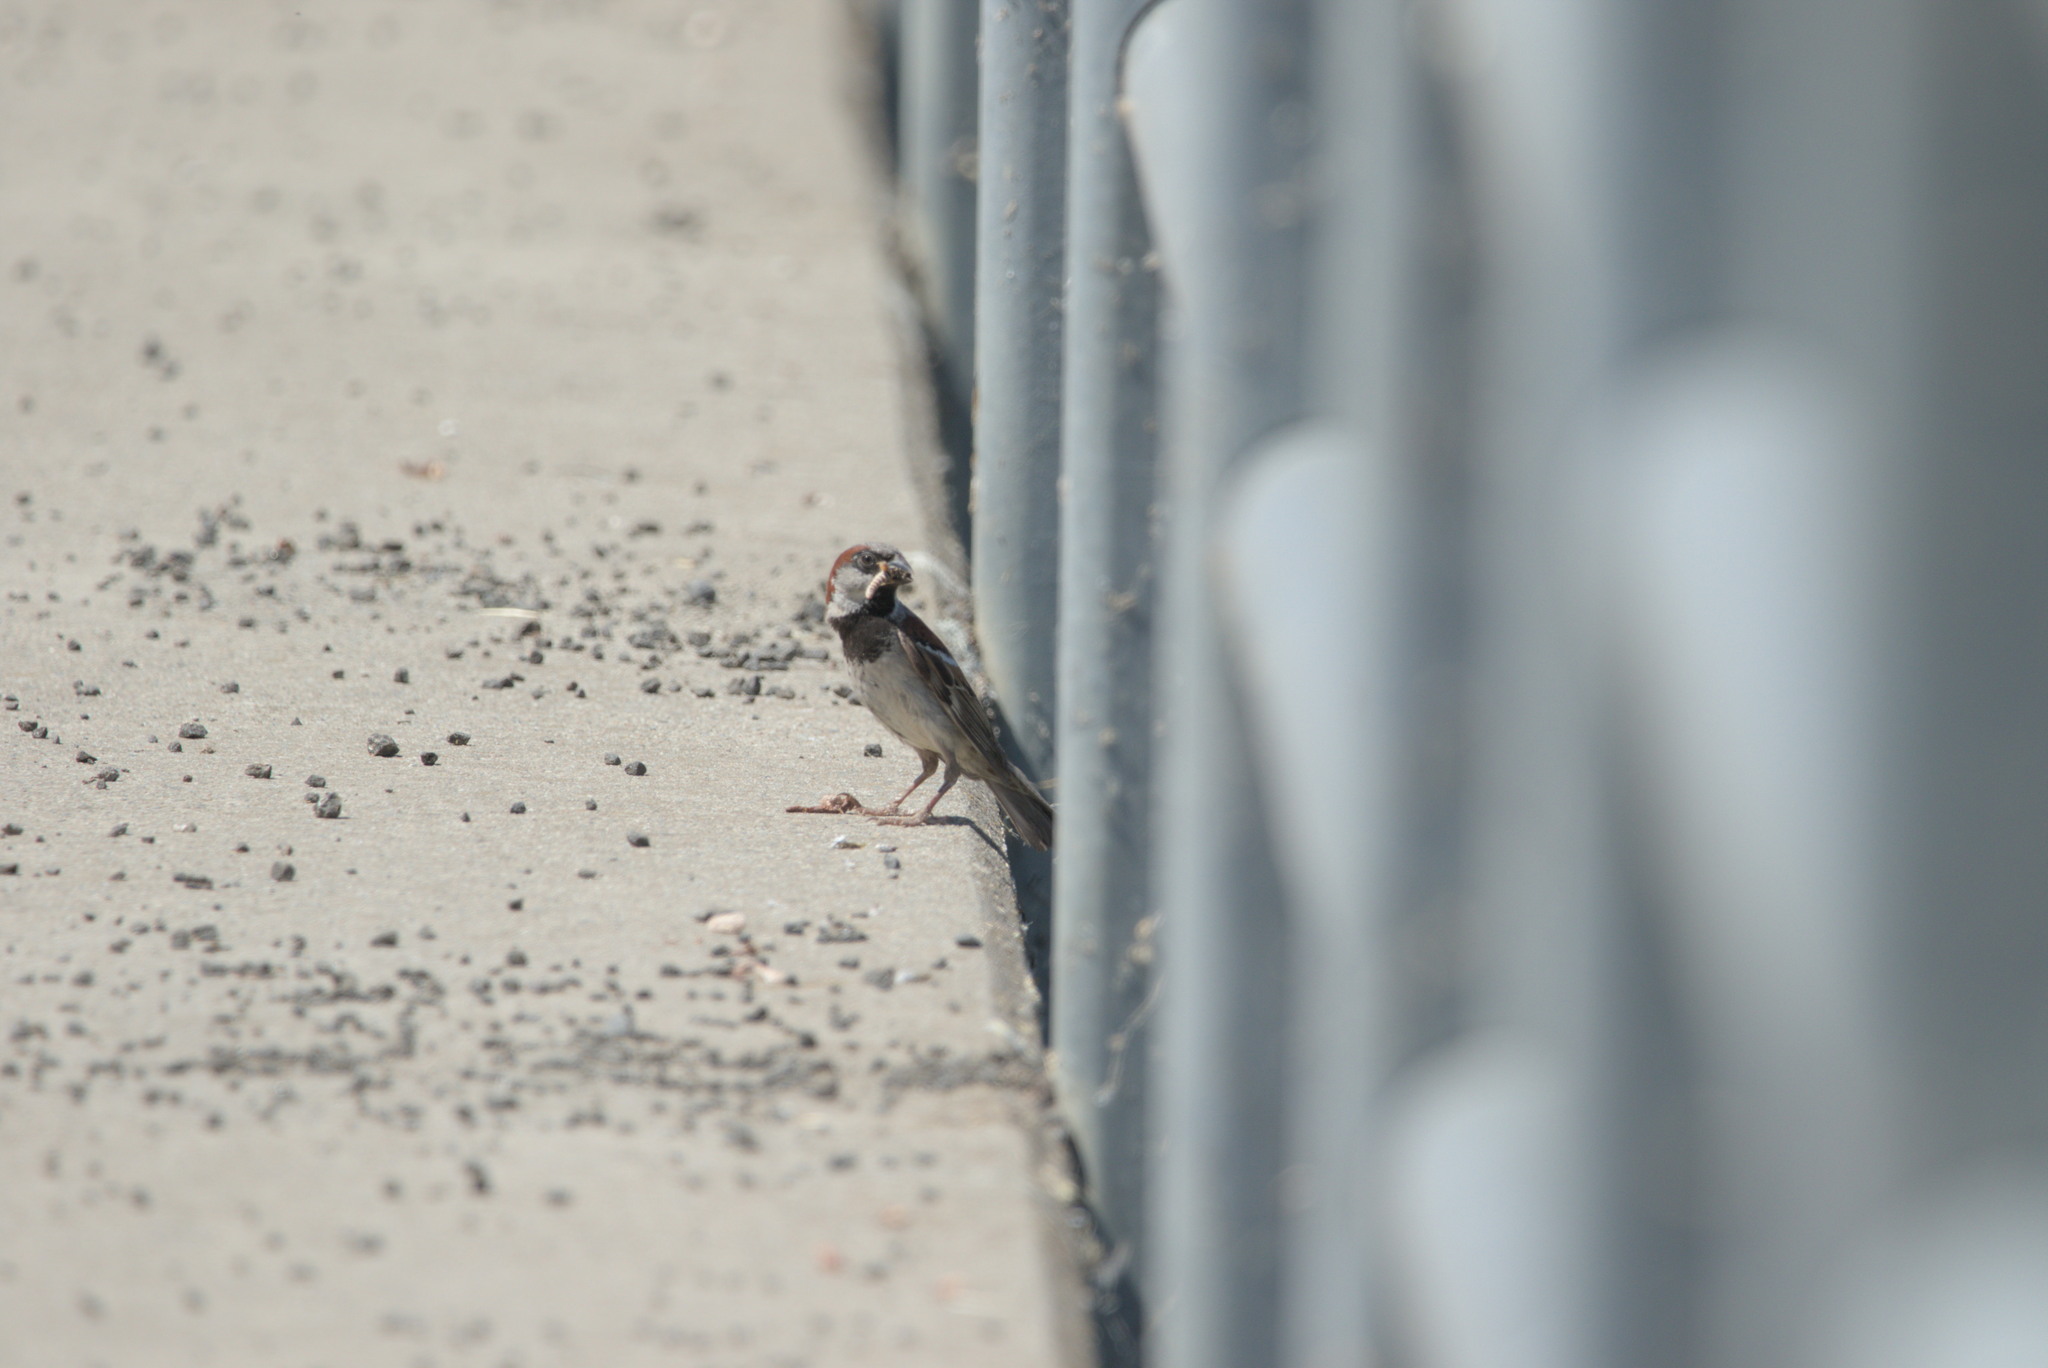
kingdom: Animalia
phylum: Chordata
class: Aves
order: Passeriformes
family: Passeridae
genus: Passer
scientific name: Passer domesticus
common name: House sparrow
